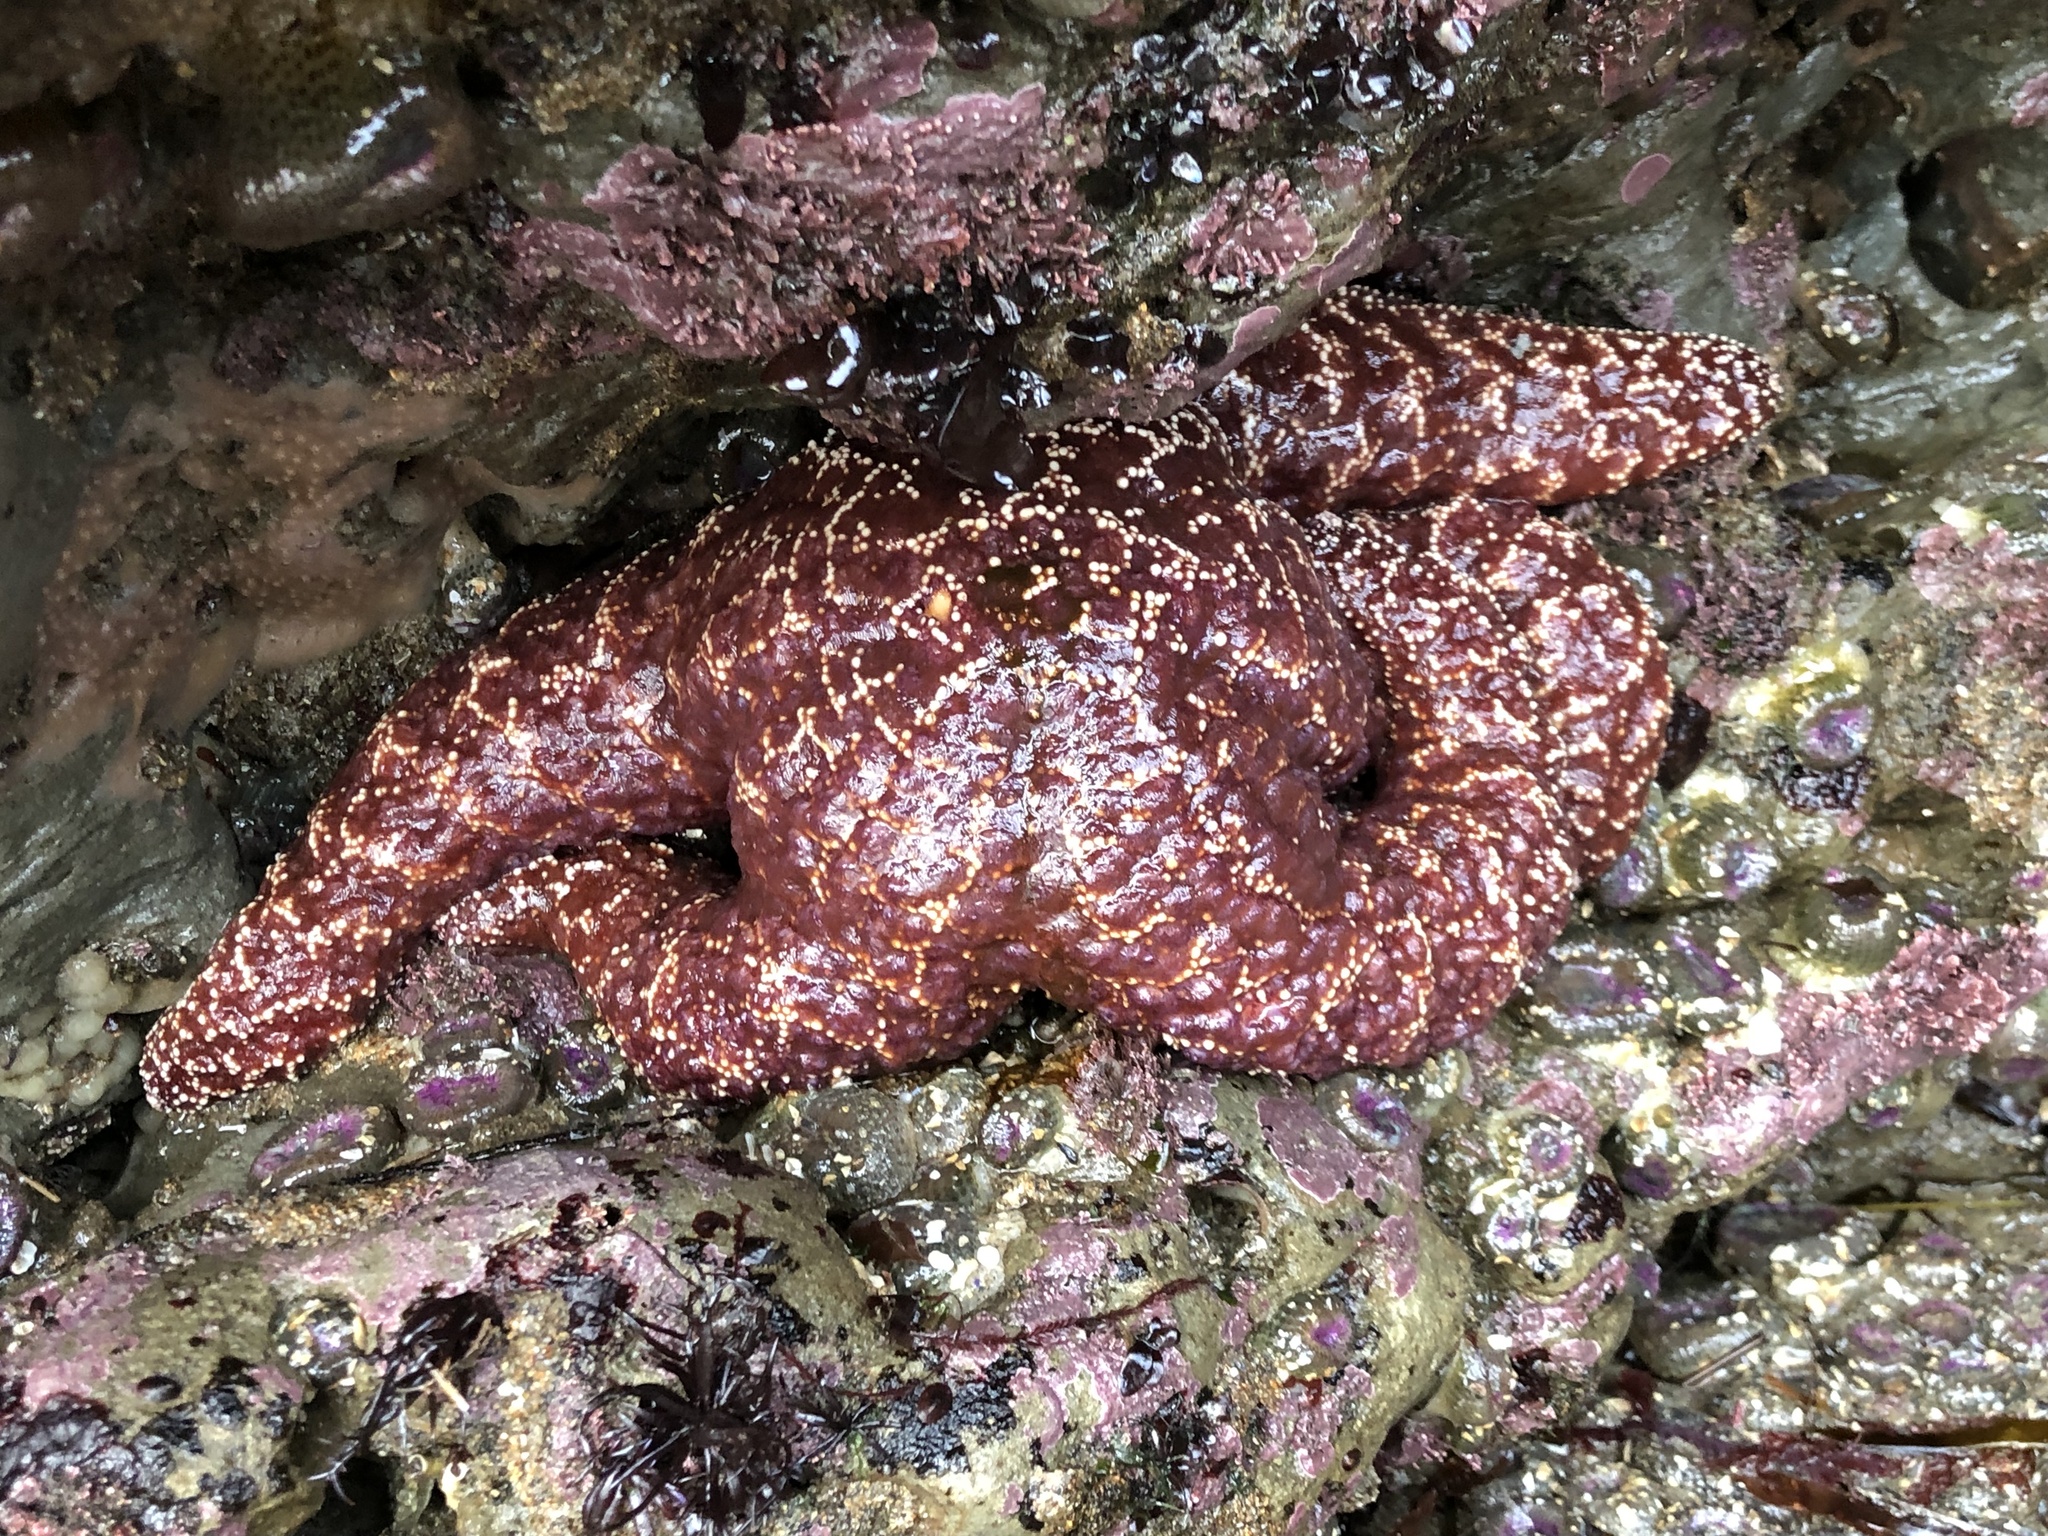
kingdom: Animalia
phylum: Echinodermata
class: Asteroidea
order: Forcipulatida
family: Asteriidae
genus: Pisaster
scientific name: Pisaster ochraceus
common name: Ochre stars
